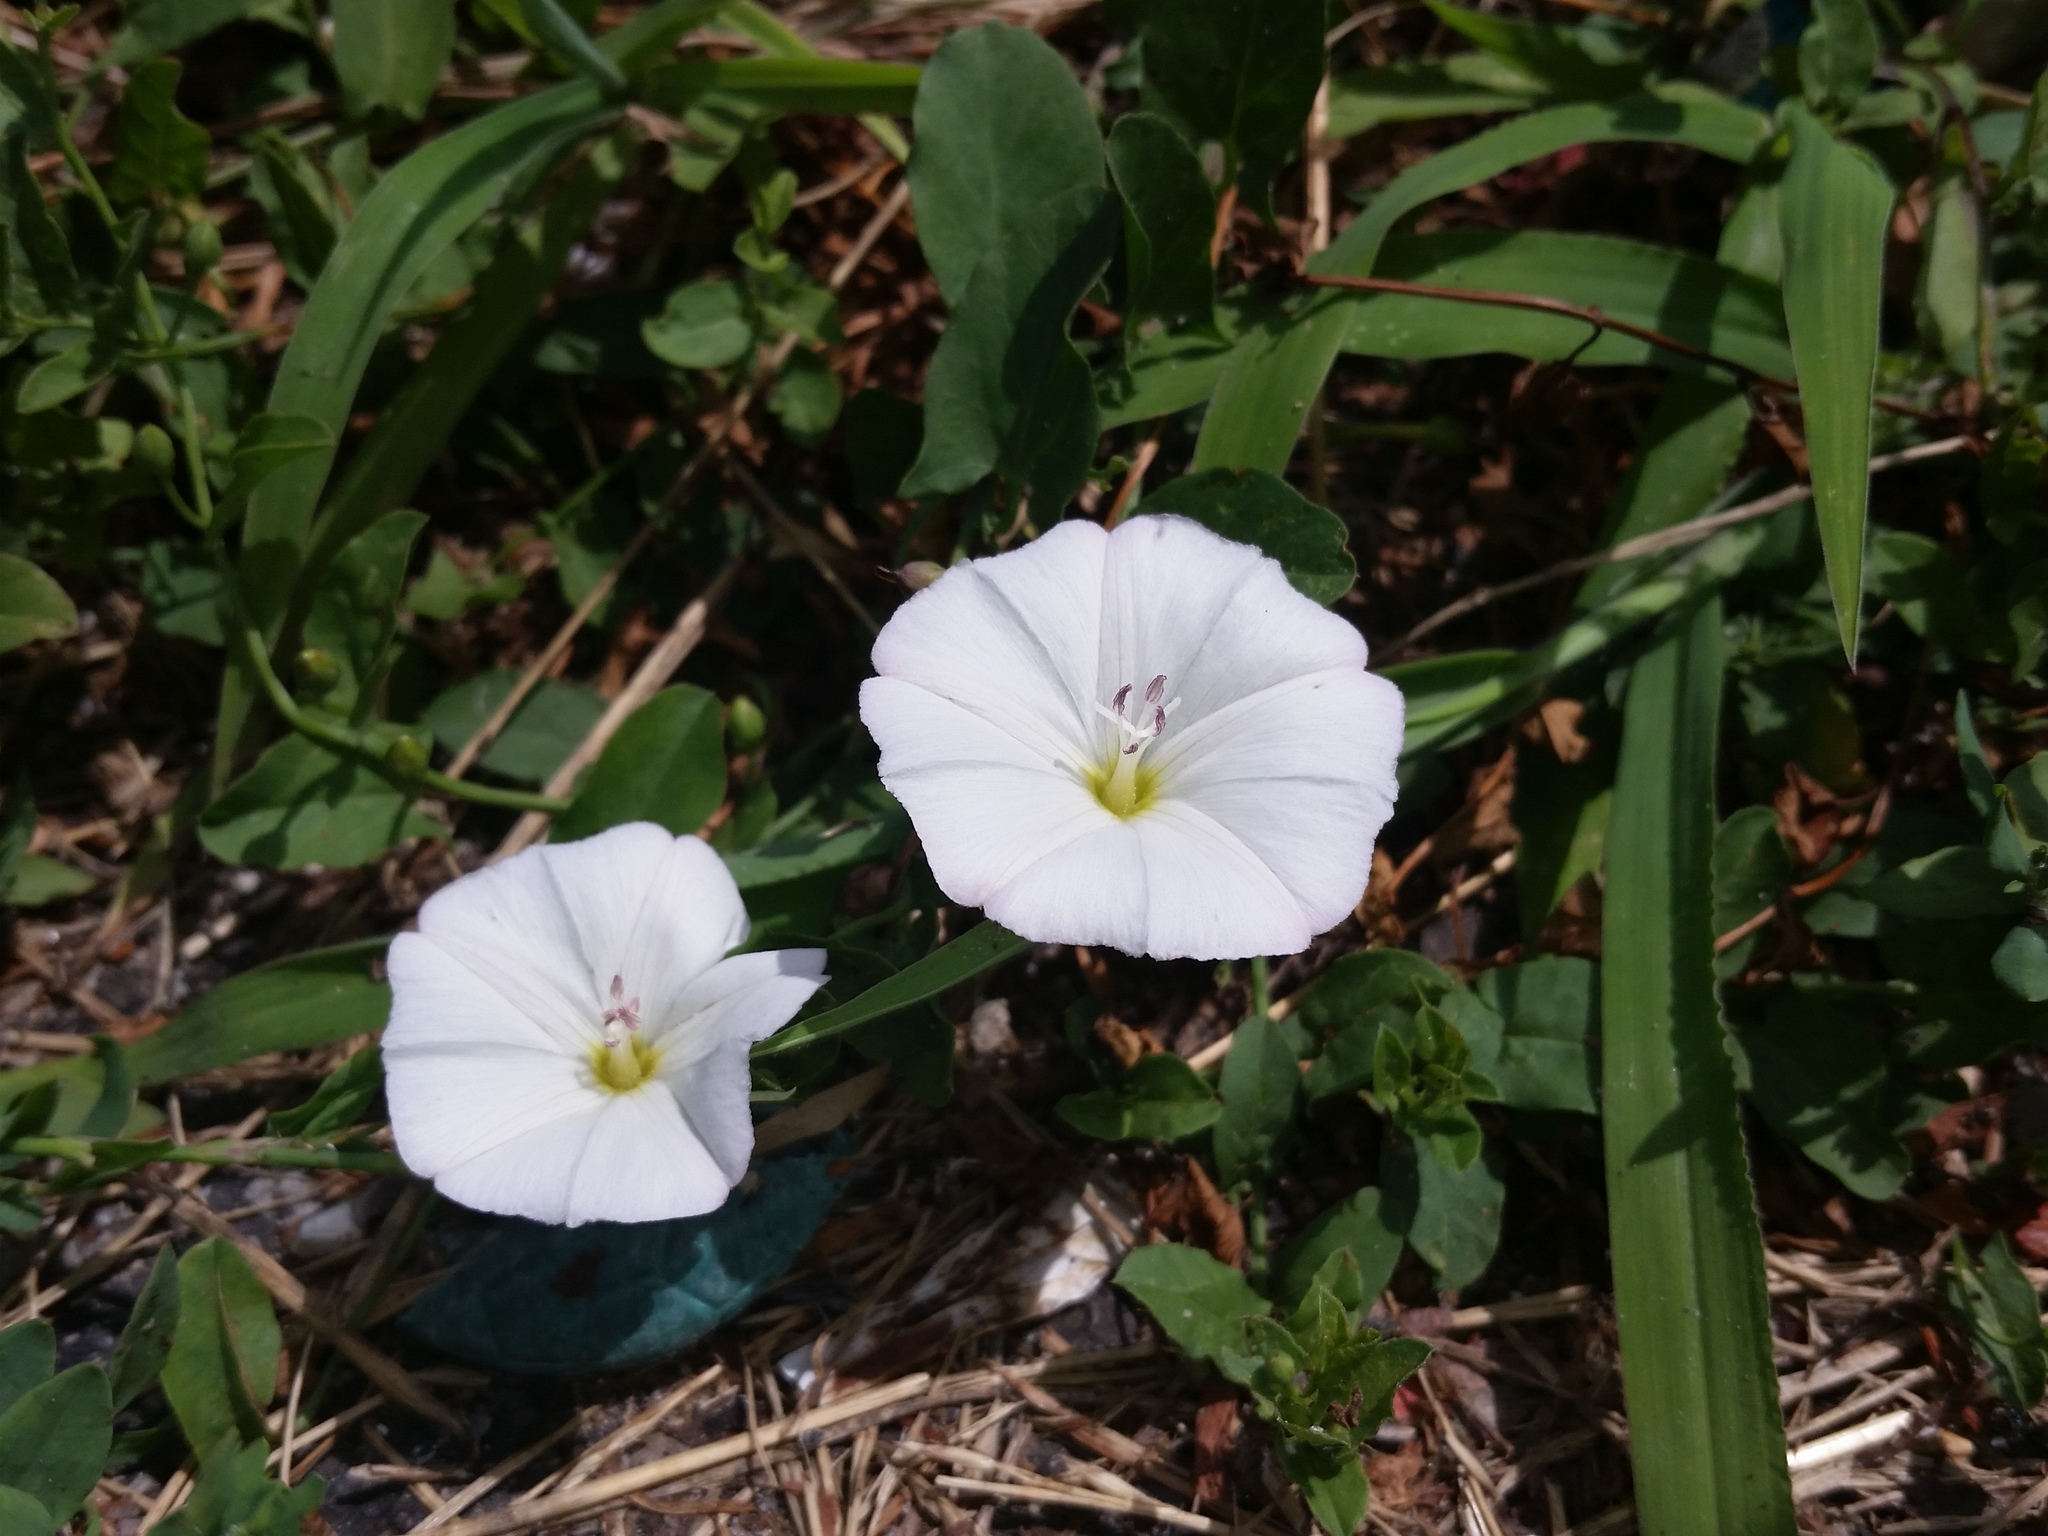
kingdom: Plantae
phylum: Tracheophyta
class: Magnoliopsida
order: Solanales
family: Convolvulaceae
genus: Convolvulus
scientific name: Convolvulus arvensis
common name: Field bindweed
